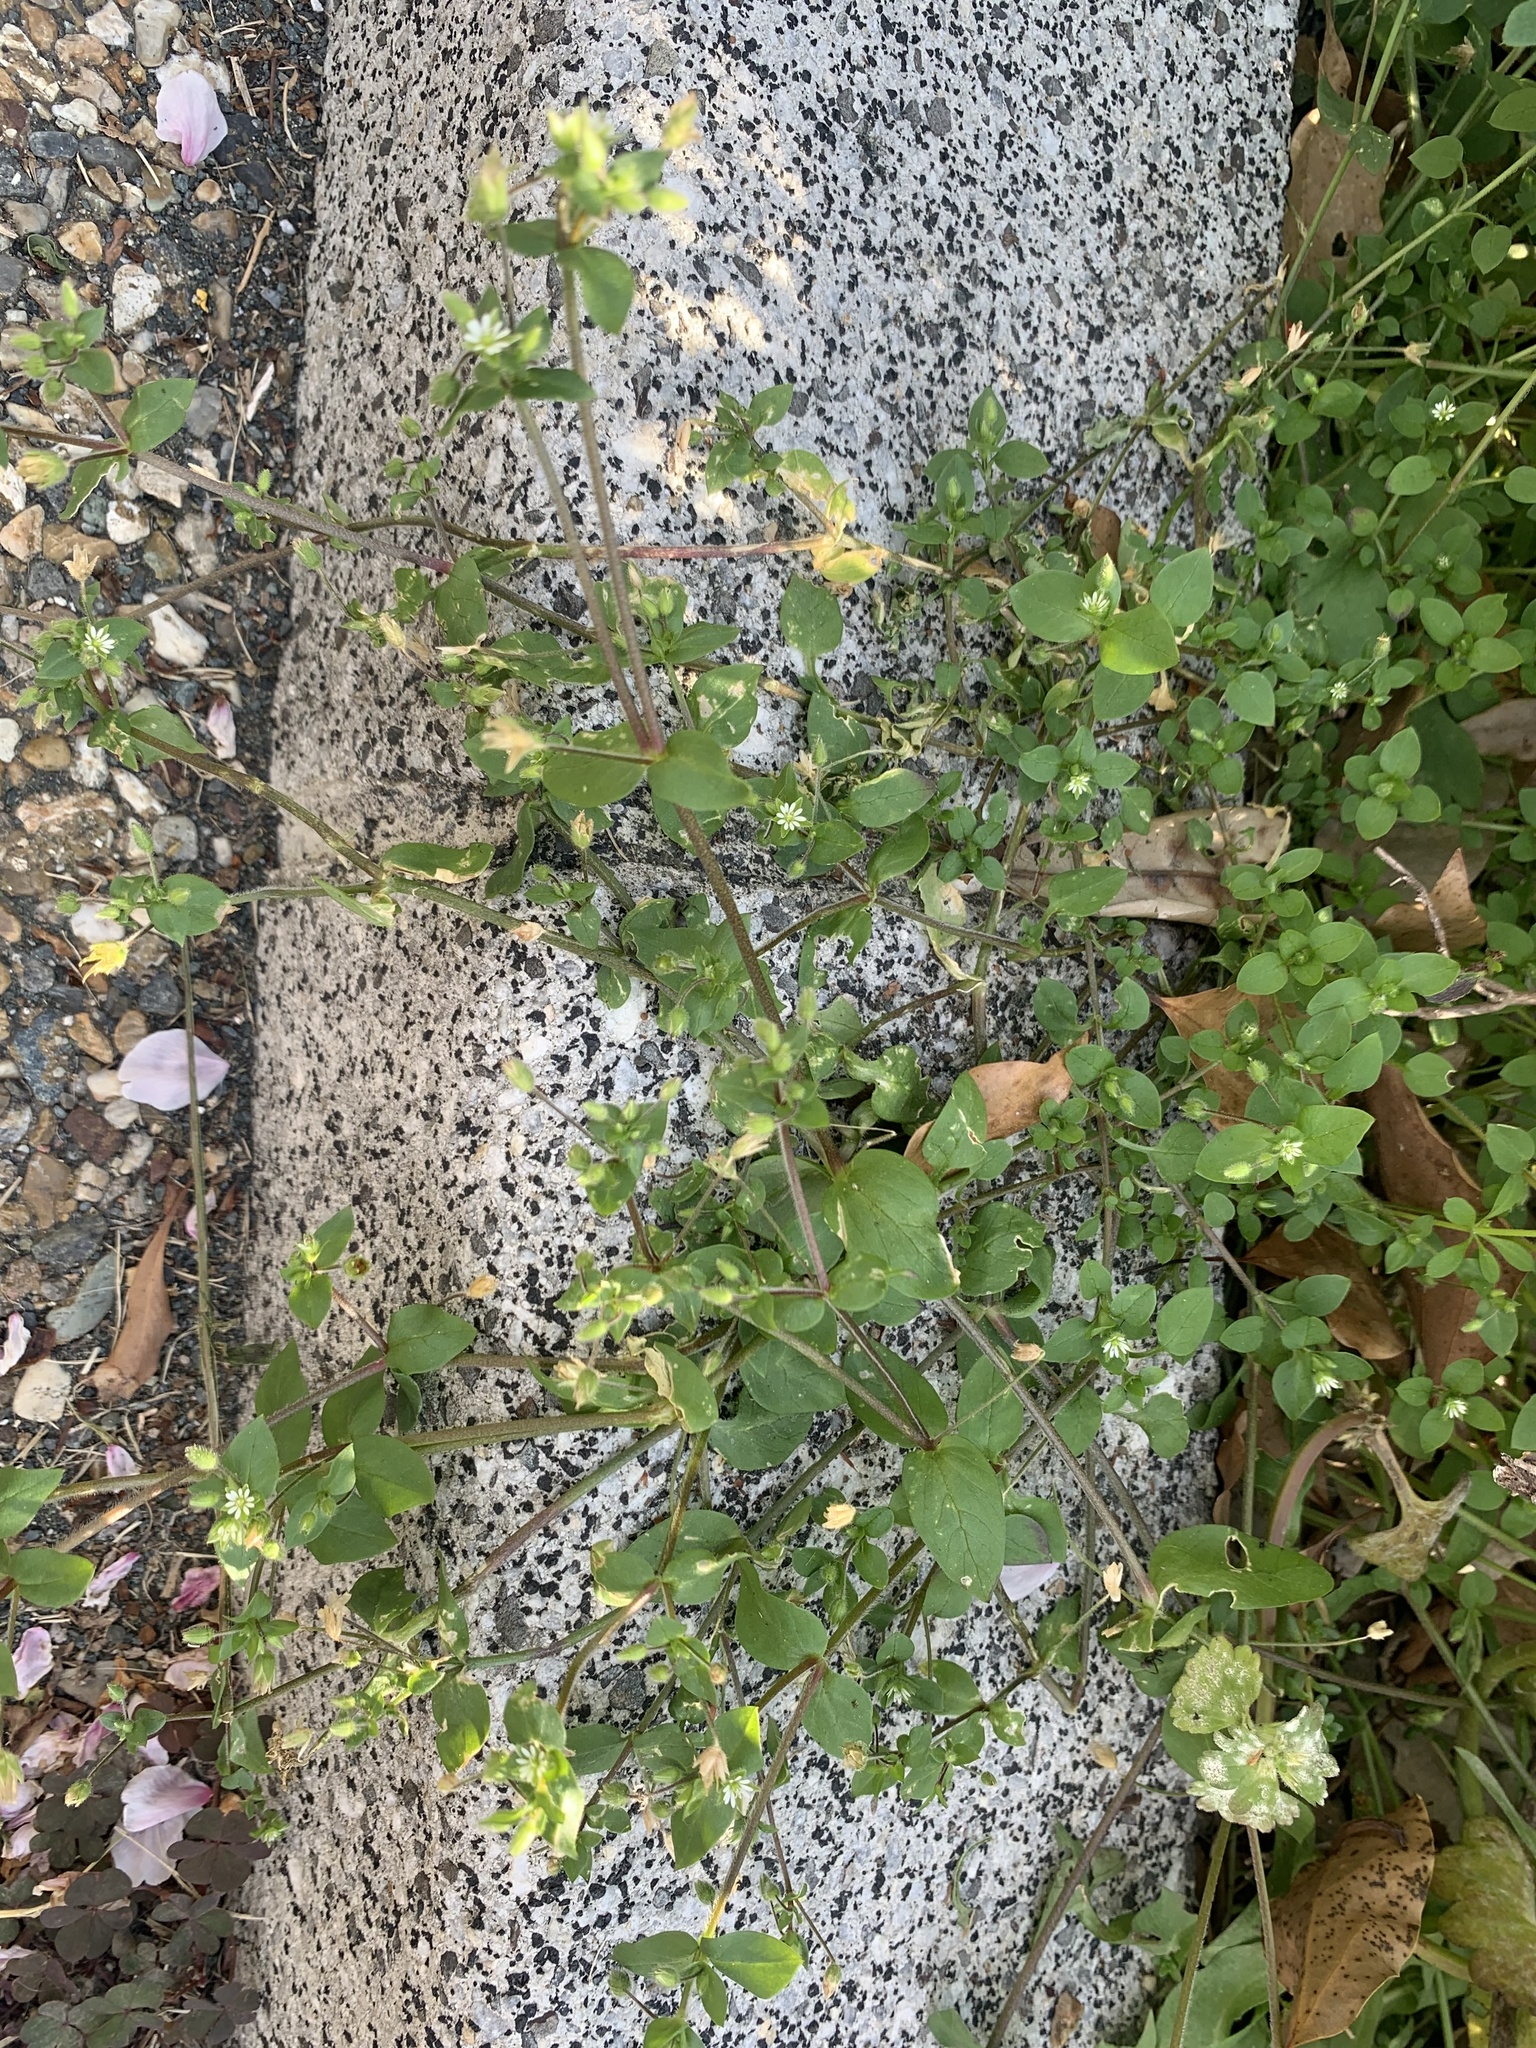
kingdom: Plantae
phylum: Tracheophyta
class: Magnoliopsida
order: Caryophyllales
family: Caryophyllaceae
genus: Stellaria
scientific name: Stellaria media
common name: Common chickweed
